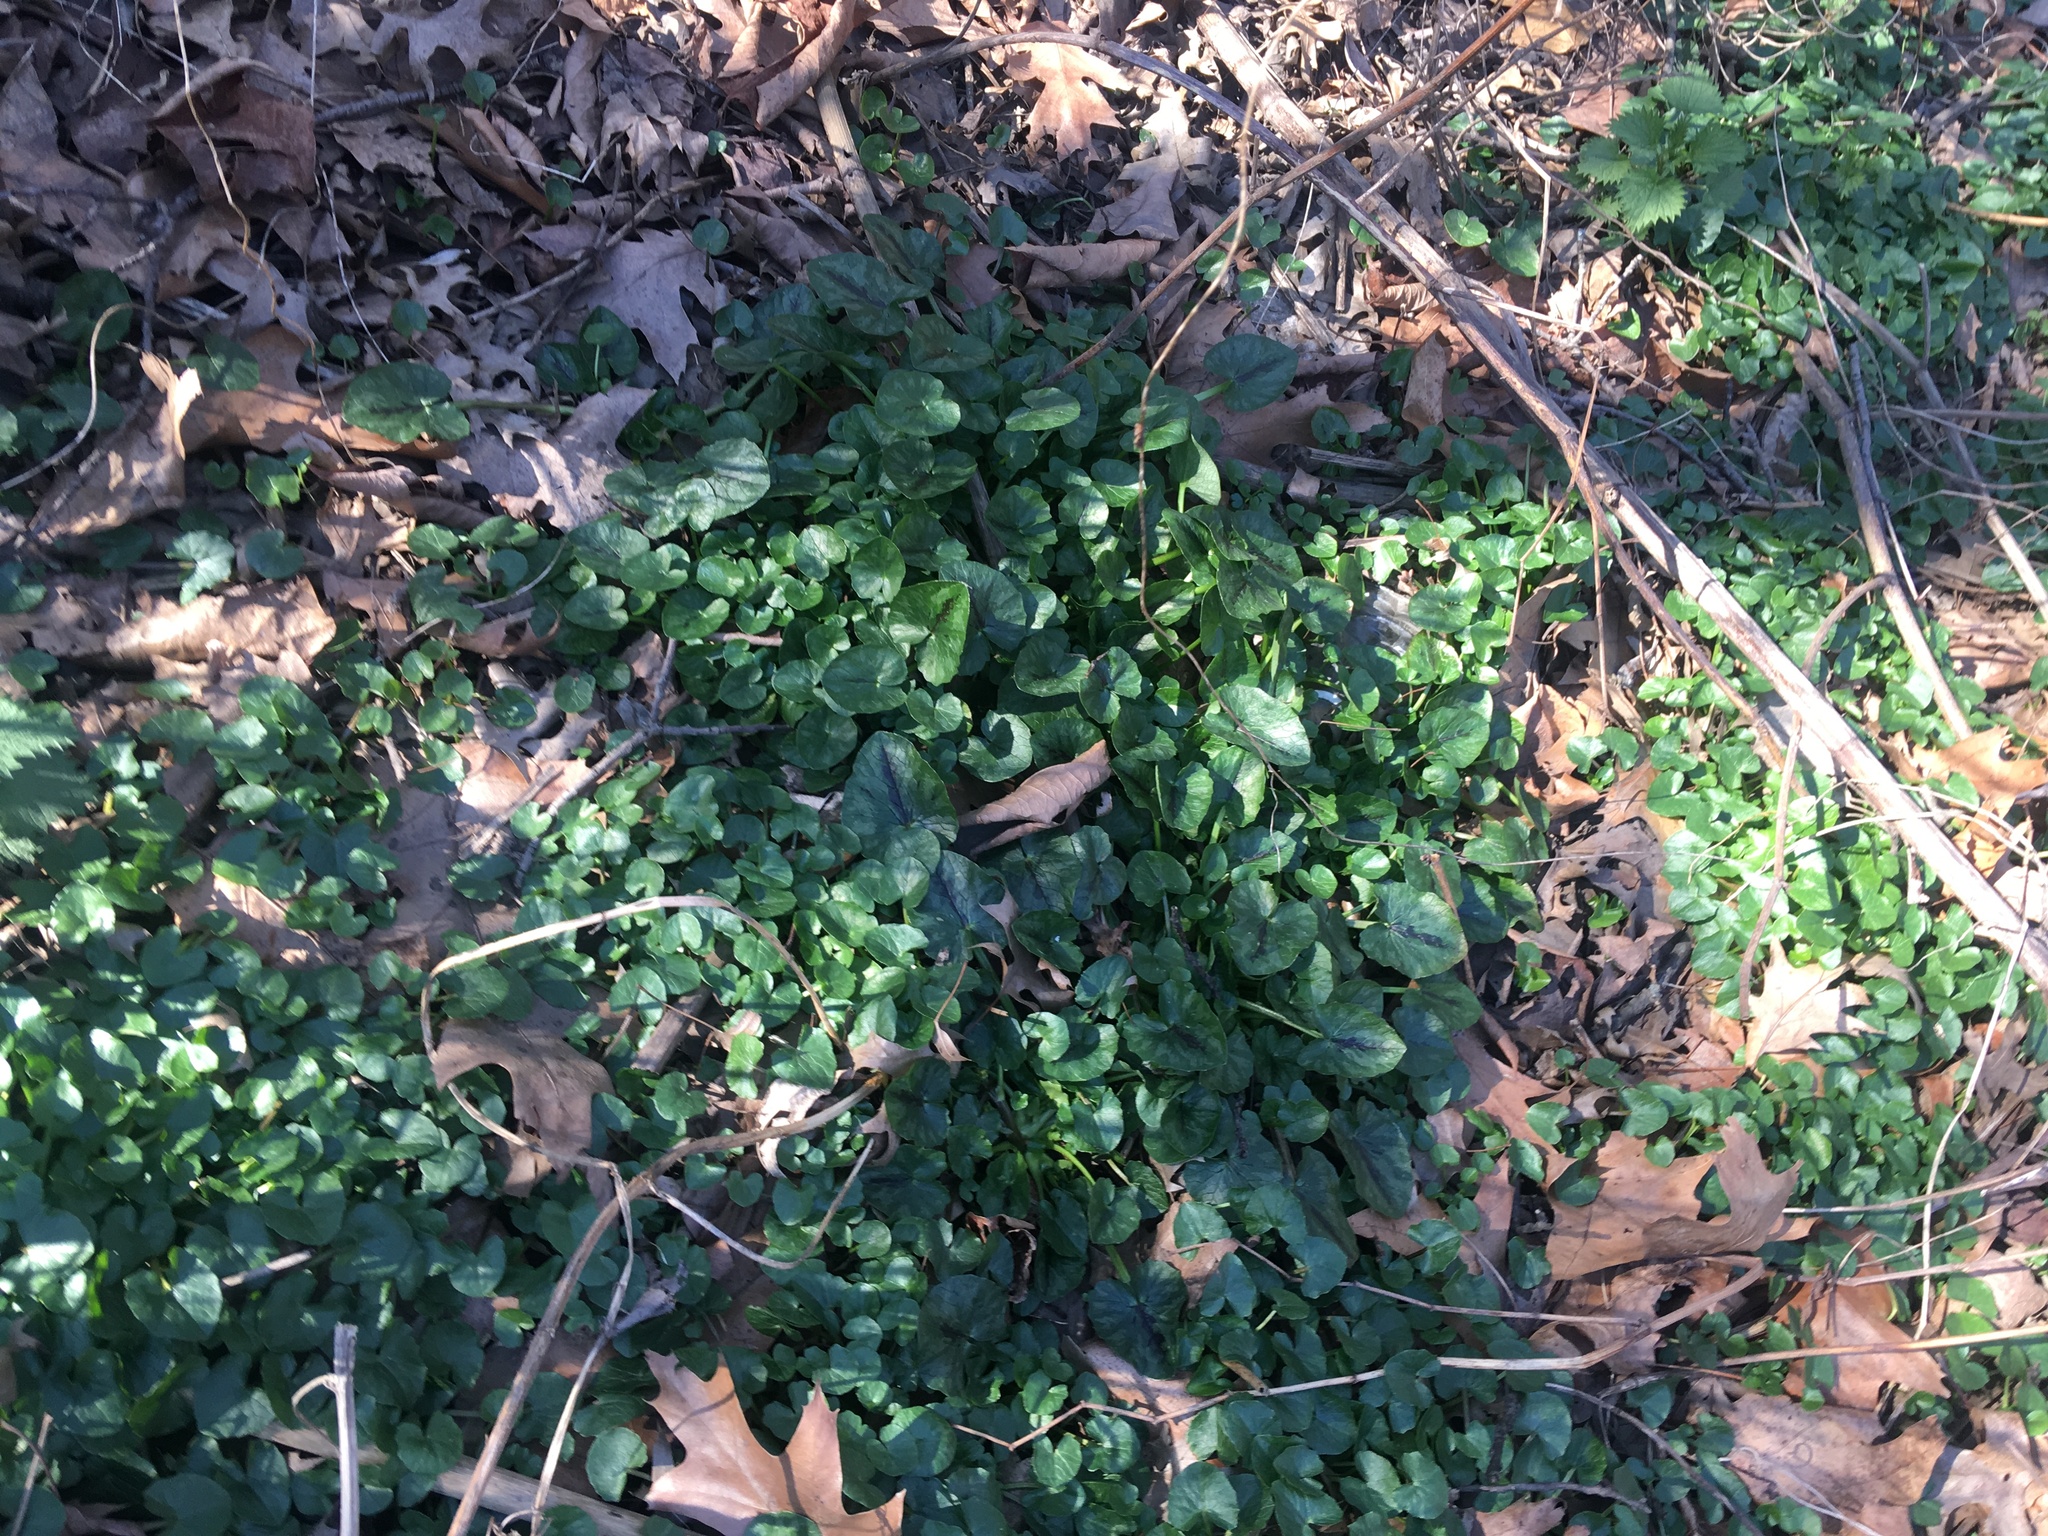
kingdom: Plantae
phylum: Tracheophyta
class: Magnoliopsida
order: Ranunculales
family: Ranunculaceae
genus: Ficaria
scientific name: Ficaria verna
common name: Lesser celandine
